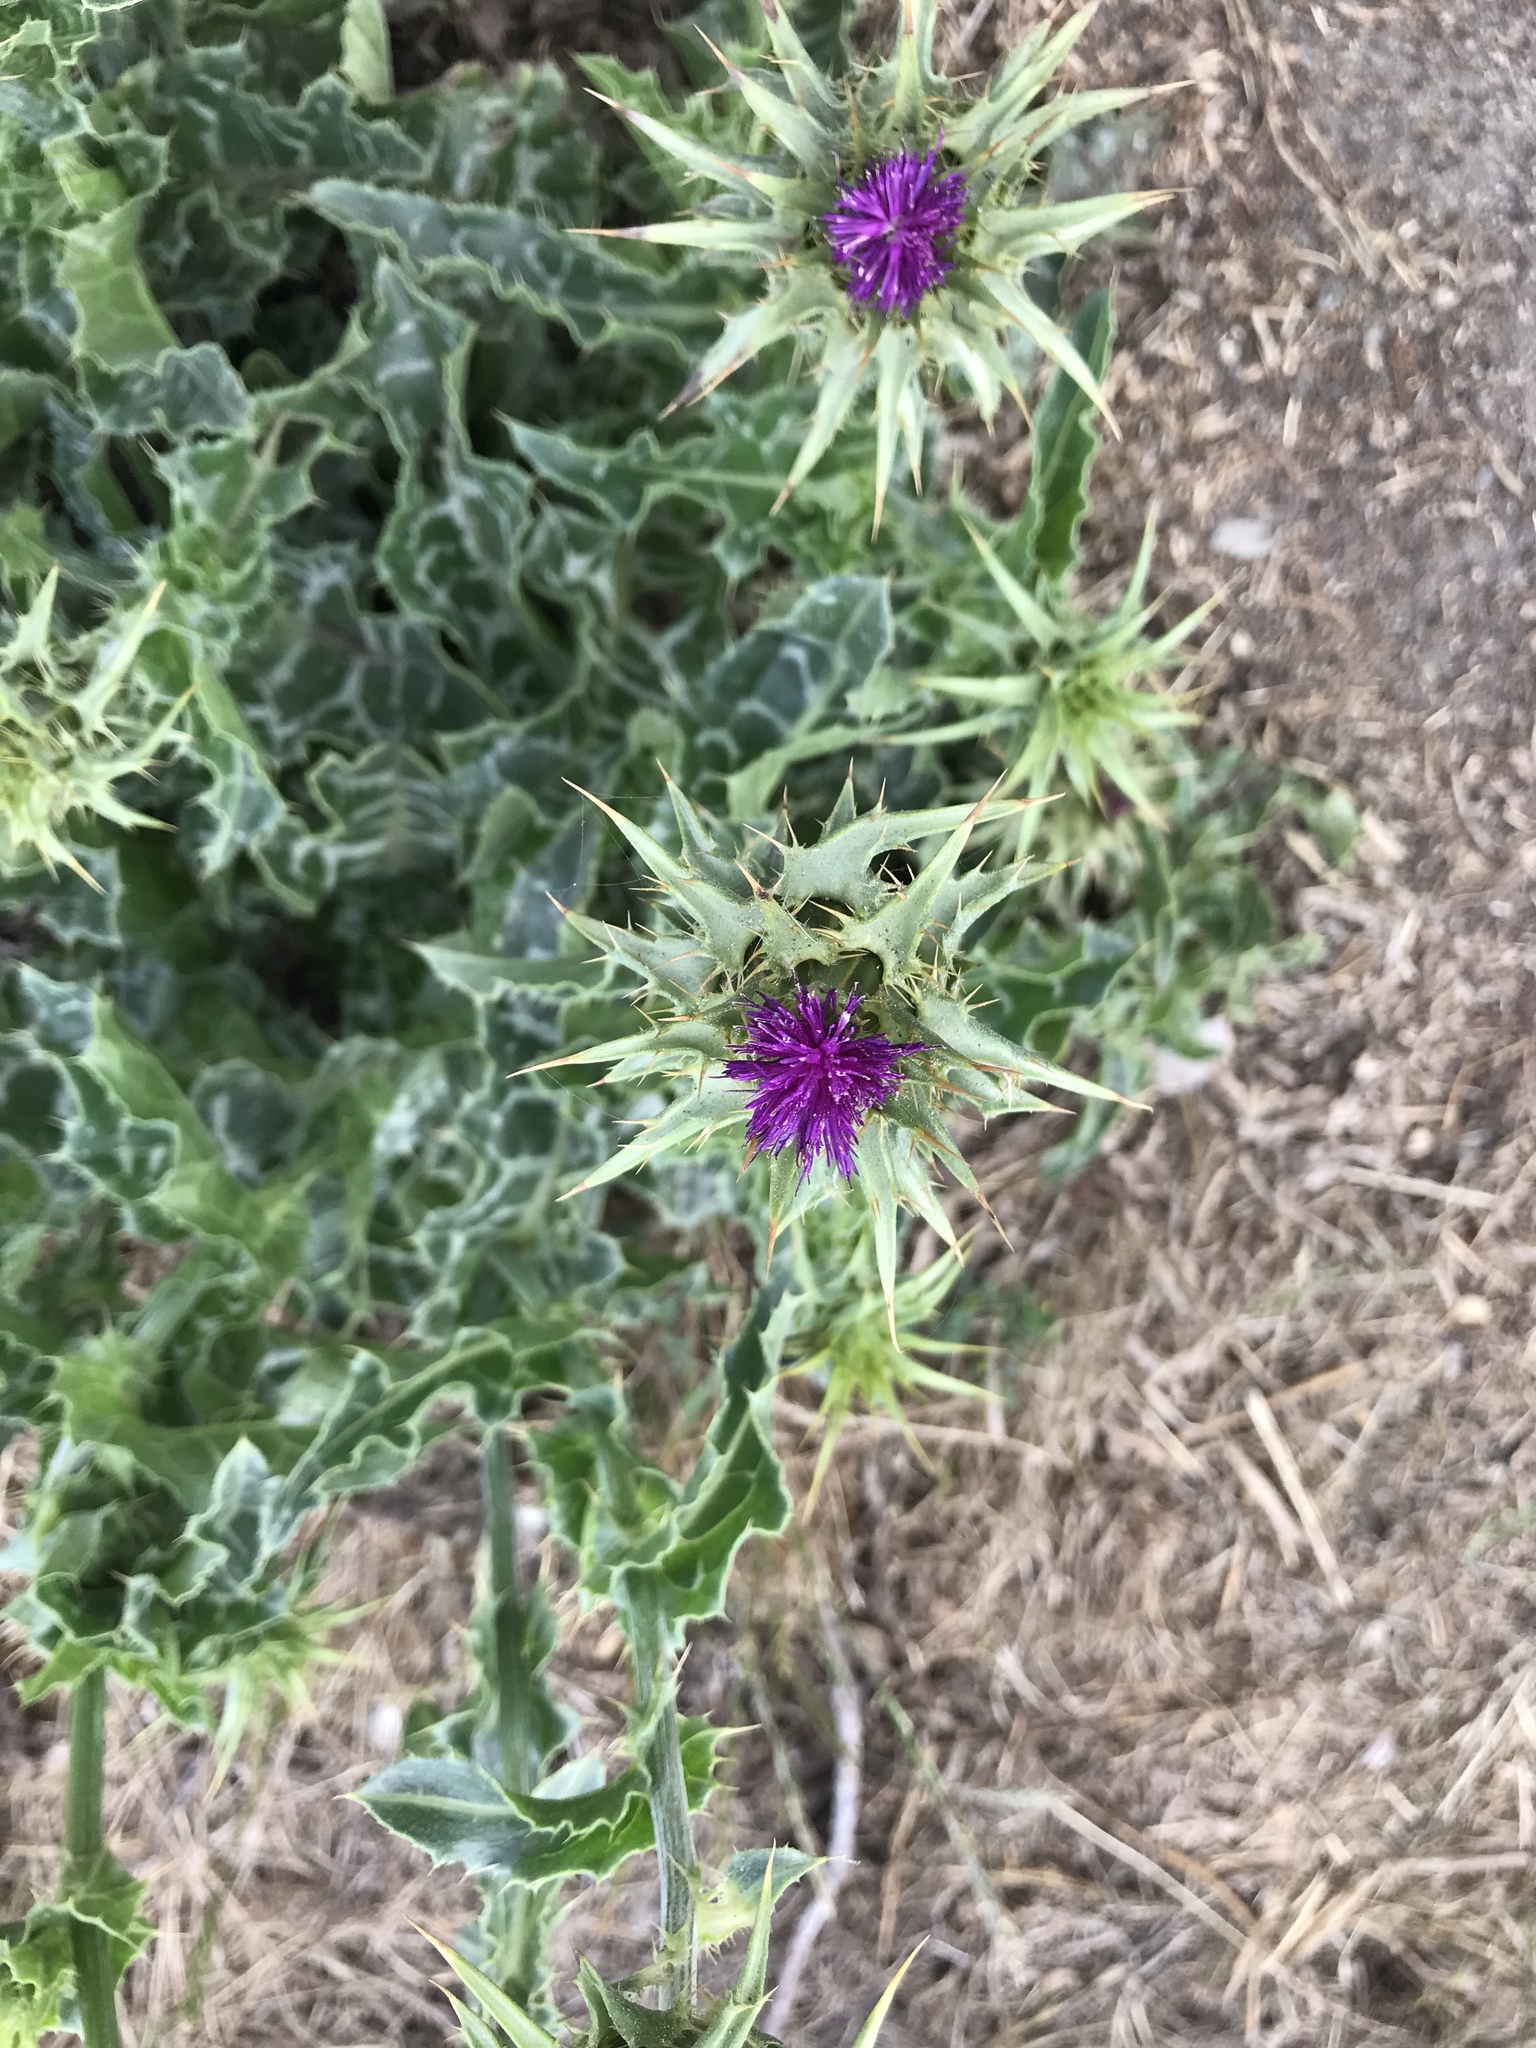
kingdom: Plantae
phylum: Tracheophyta
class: Magnoliopsida
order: Asterales
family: Asteraceae
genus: Silybum
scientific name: Silybum marianum
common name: Milk thistle
